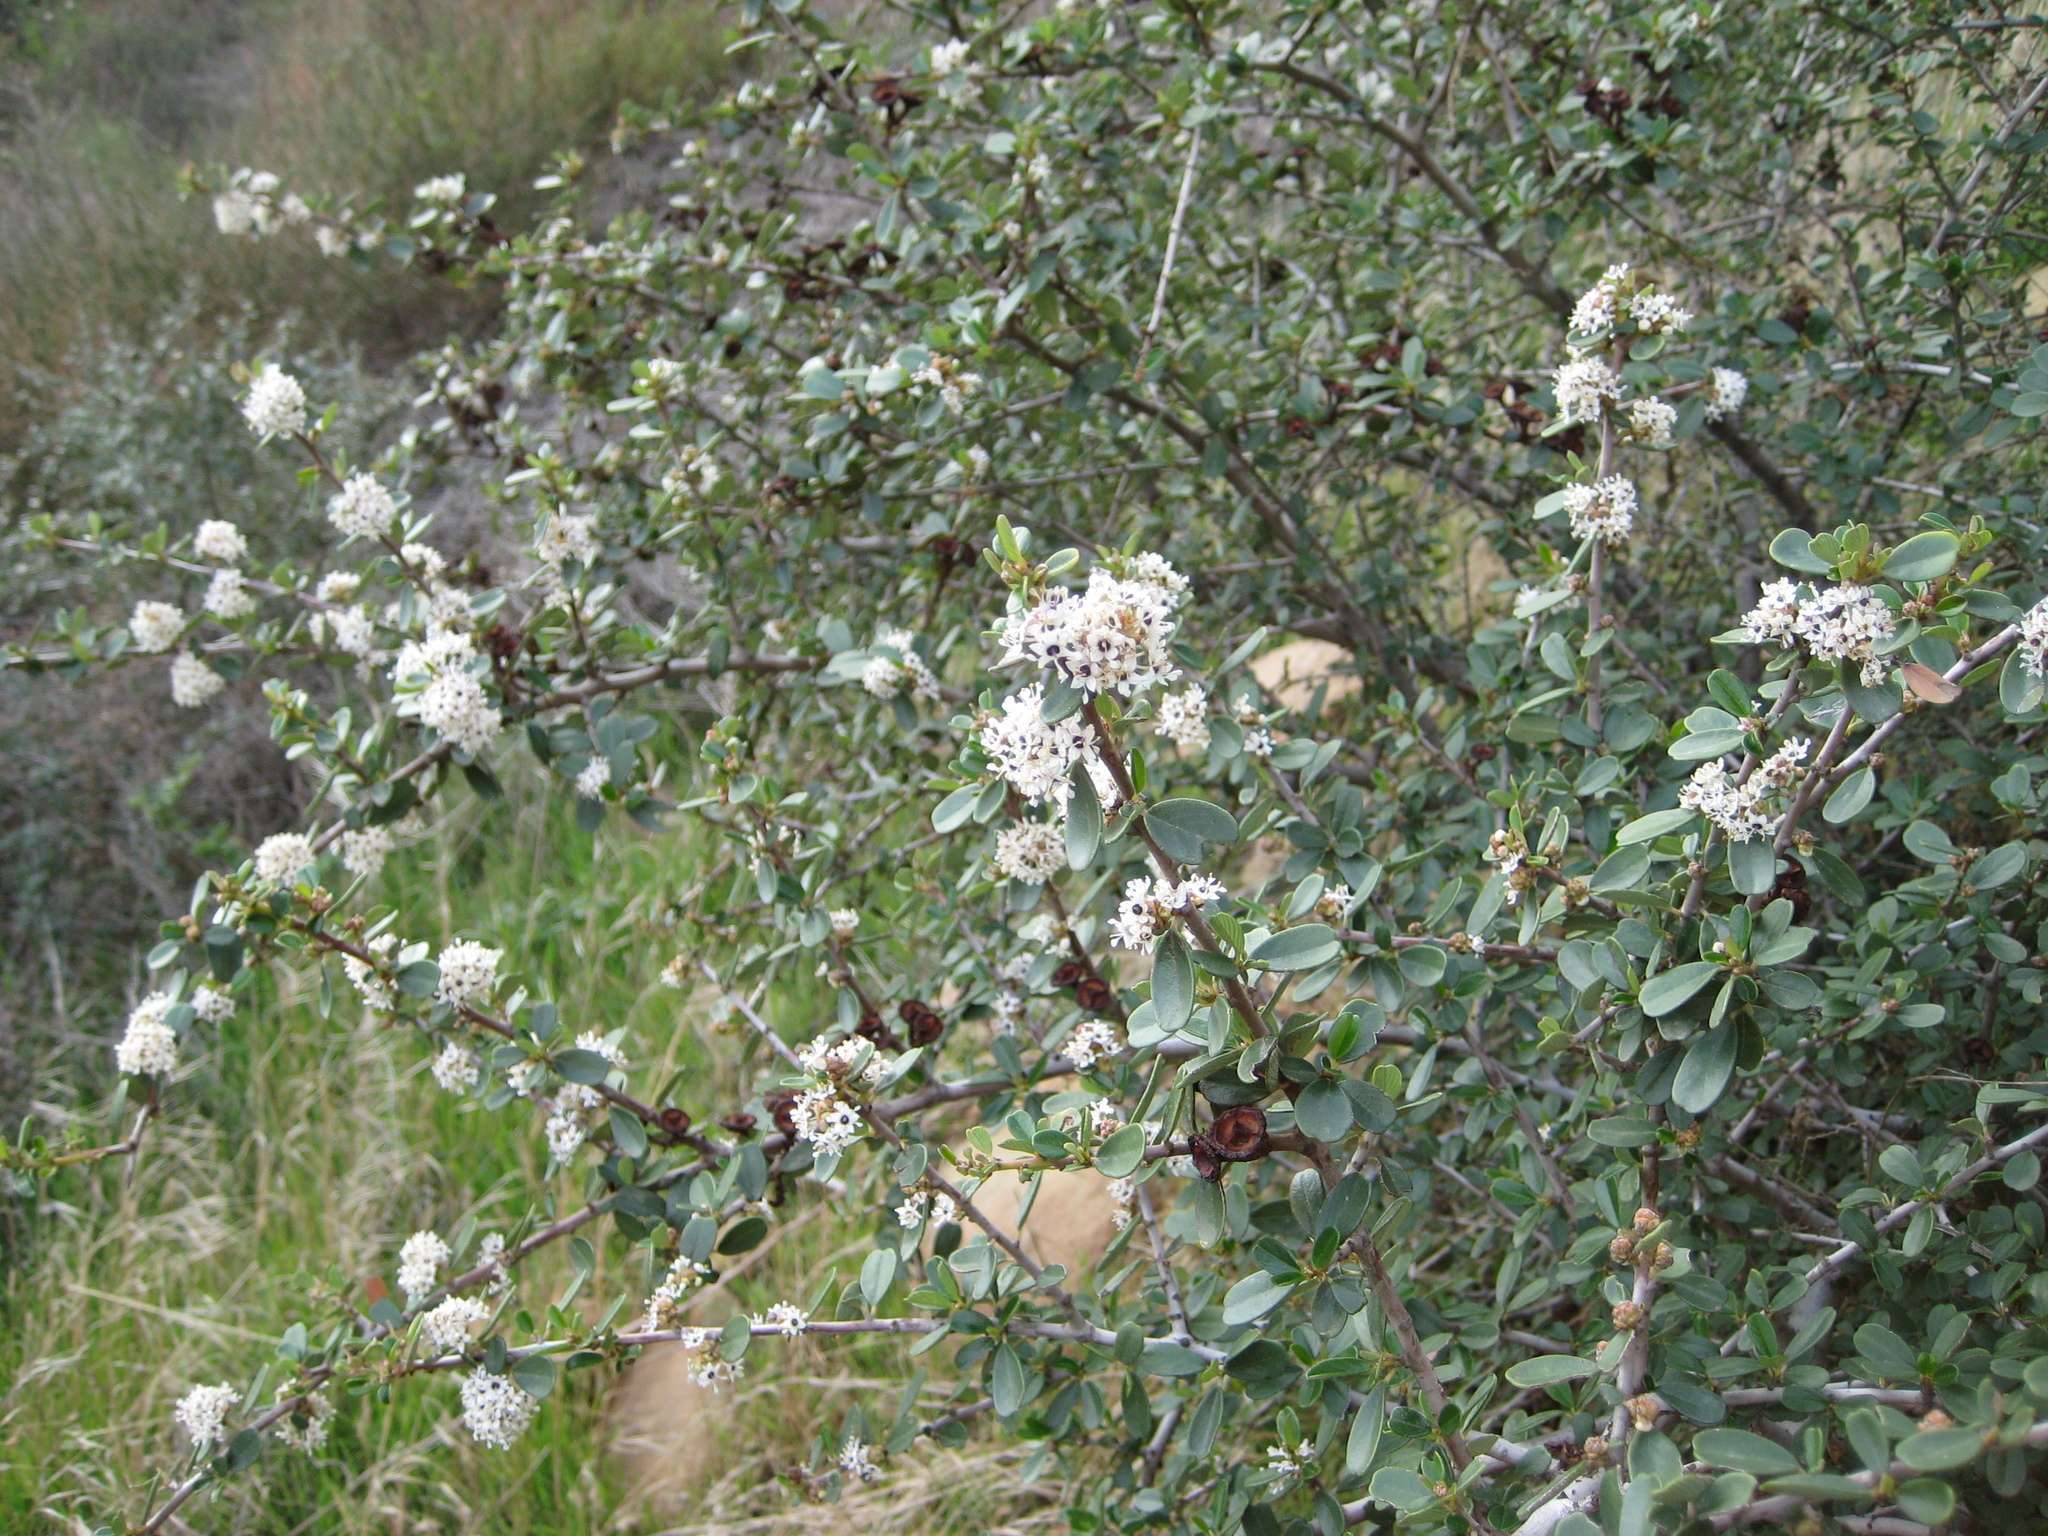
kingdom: Plantae
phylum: Tracheophyta
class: Magnoliopsida
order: Rosales
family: Rhamnaceae
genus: Ceanothus
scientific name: Ceanothus megacarpus
